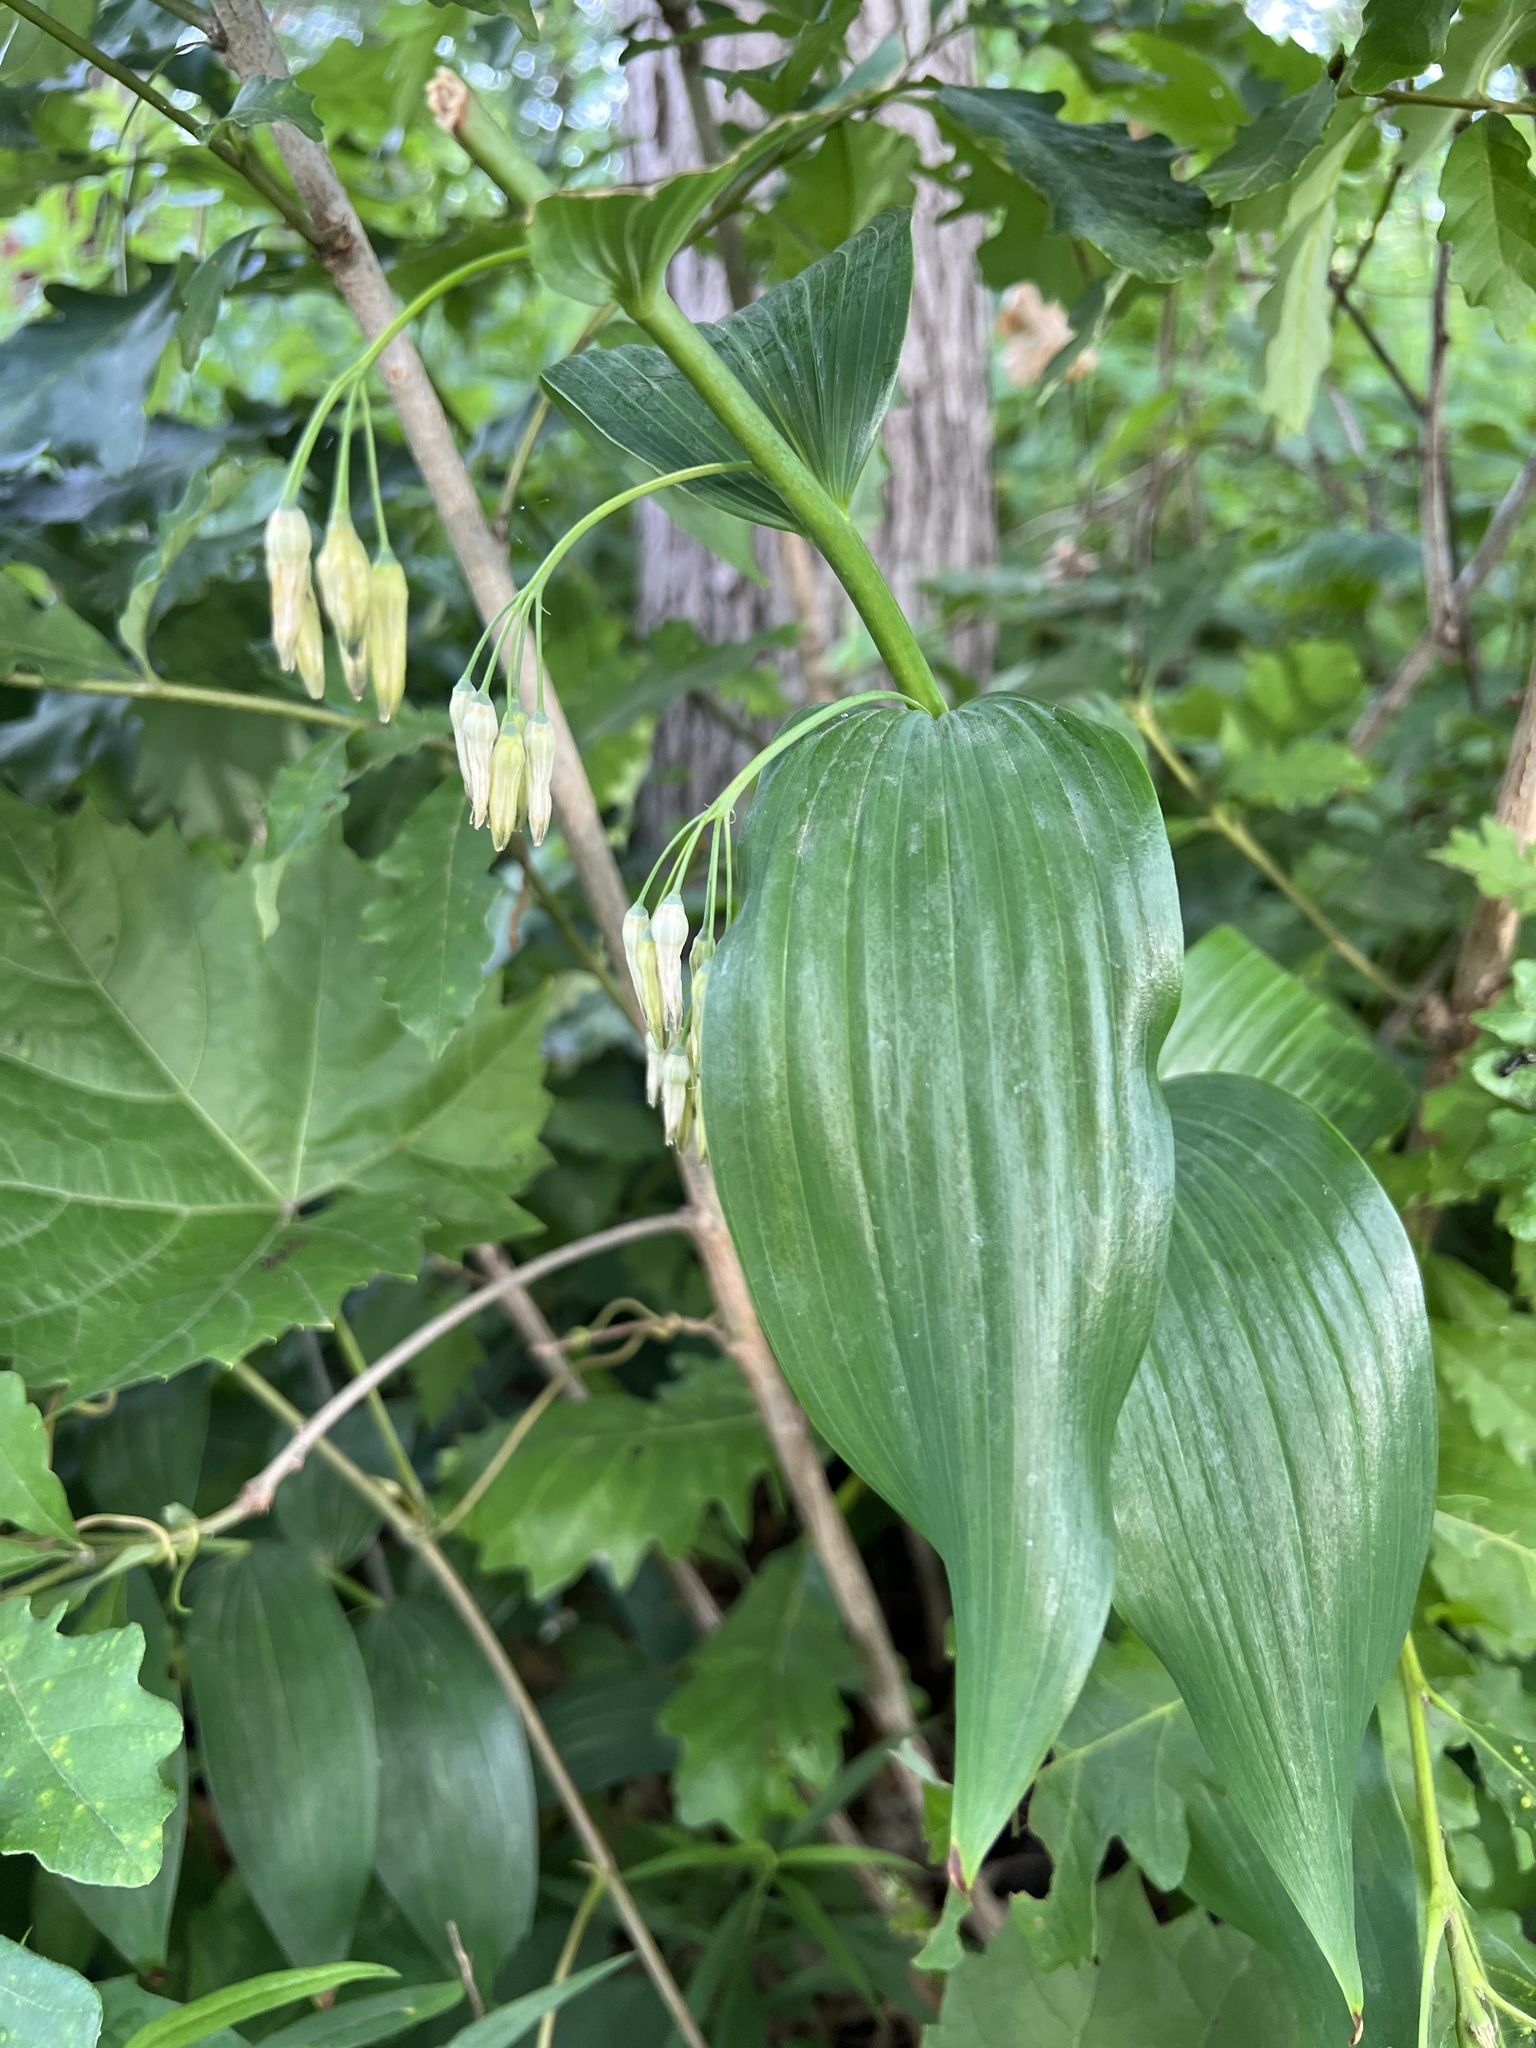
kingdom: Plantae
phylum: Tracheophyta
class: Liliopsida
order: Asparagales
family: Asparagaceae
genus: Polygonatum
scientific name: Polygonatum biflorum
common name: American solomon's-seal
